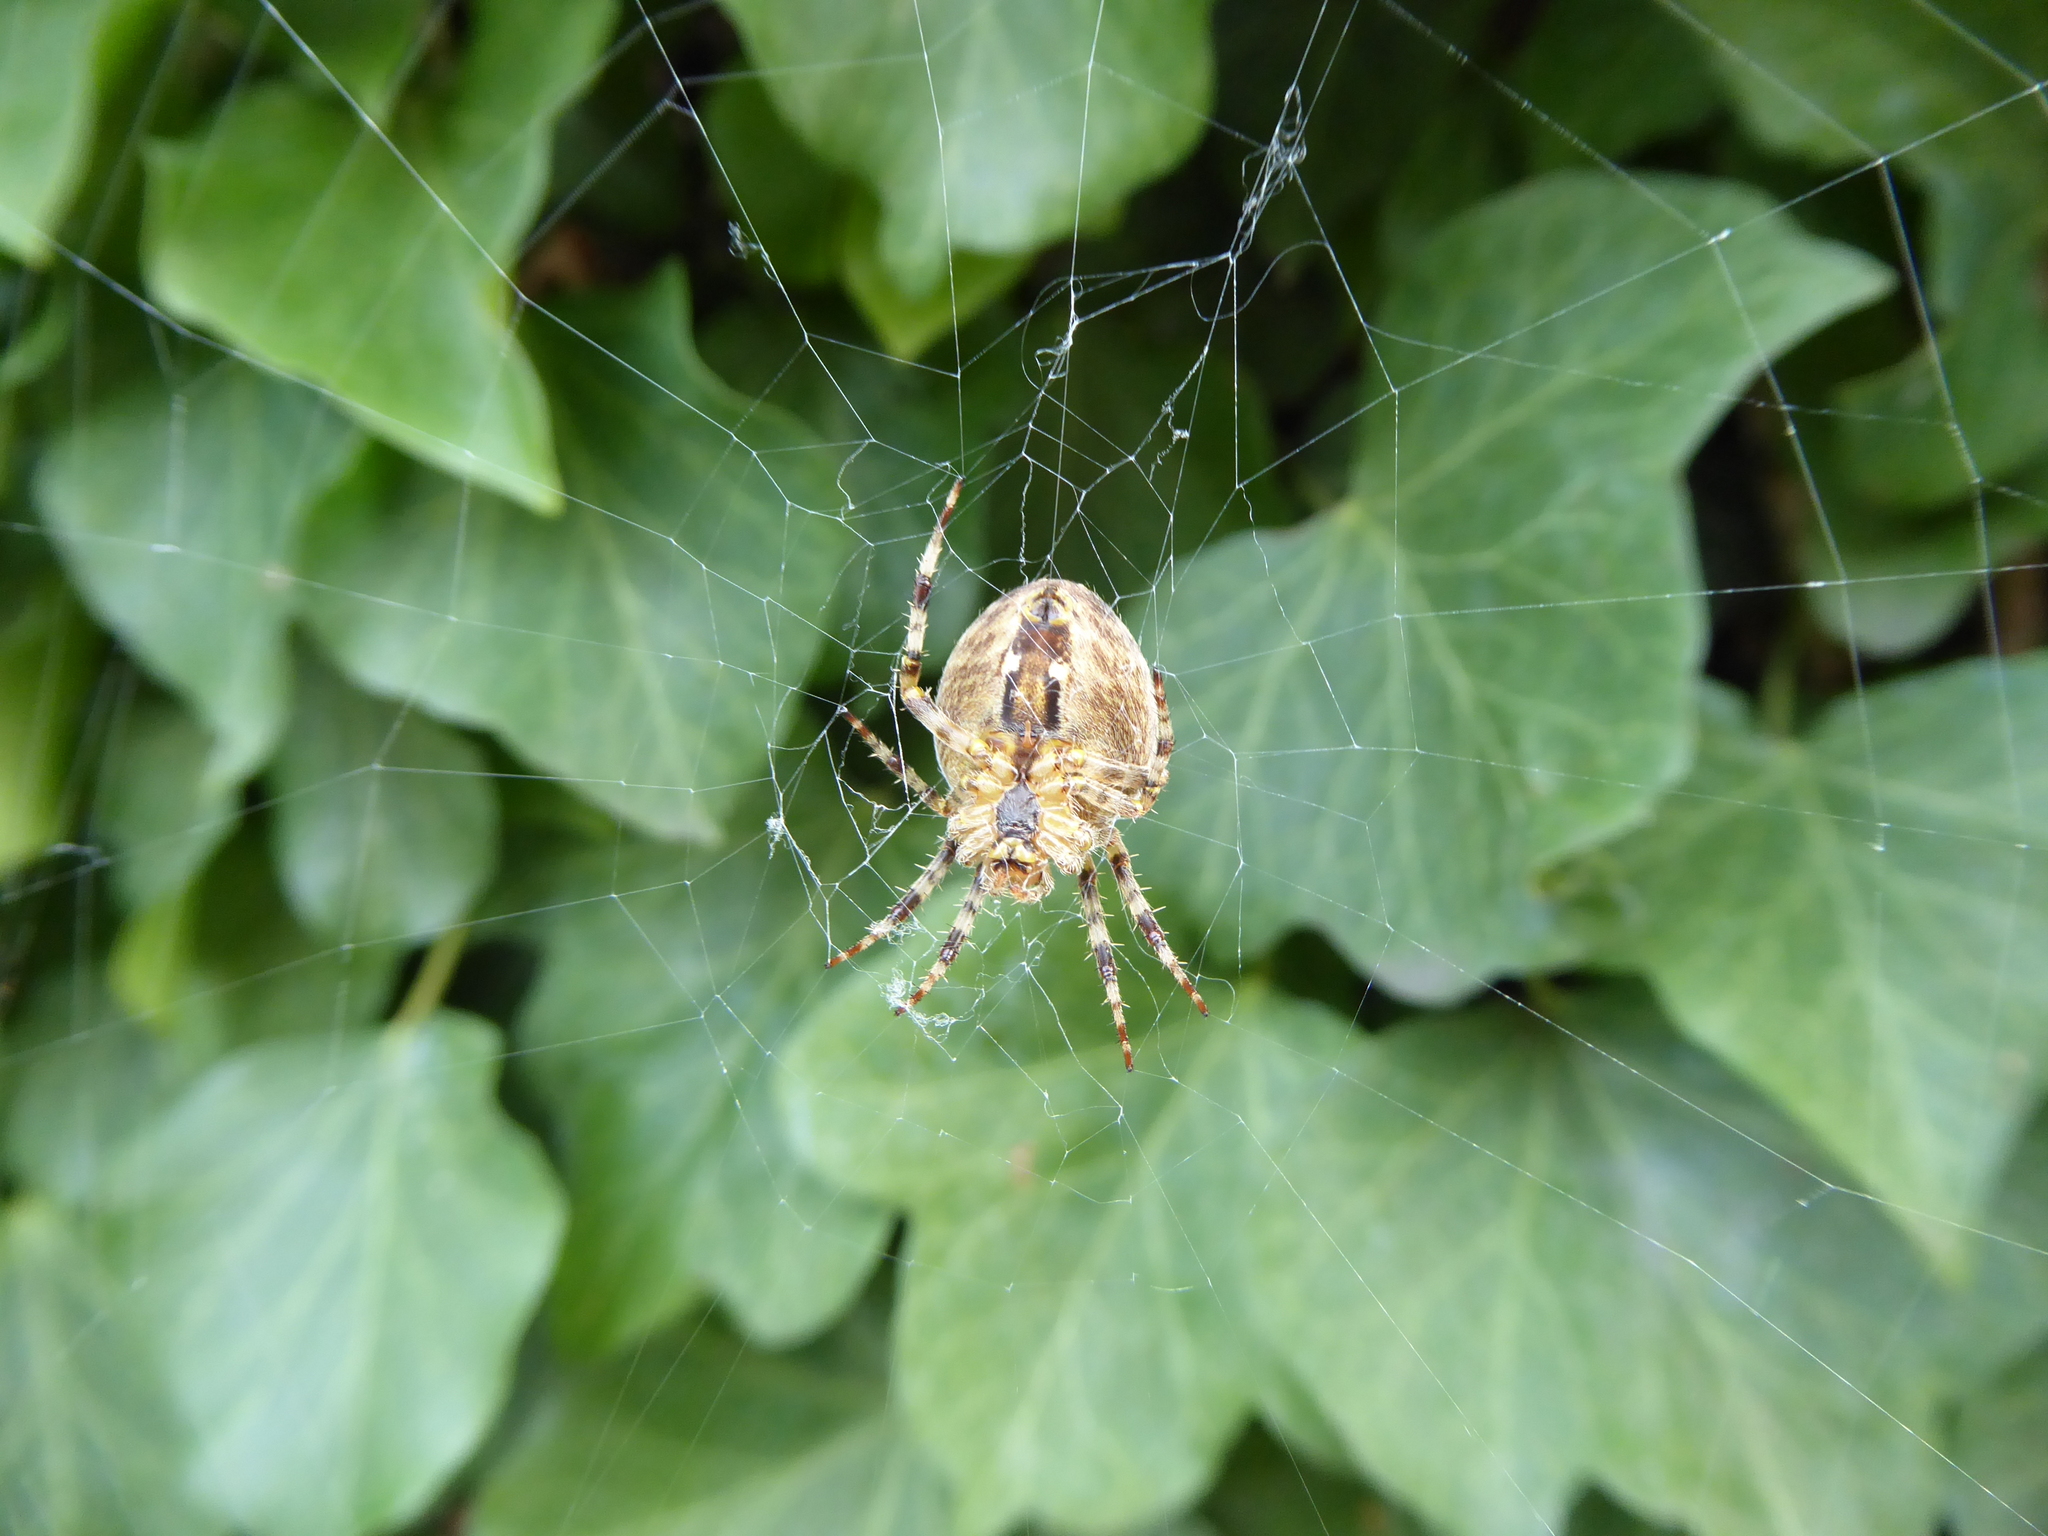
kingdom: Animalia
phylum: Arthropoda
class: Arachnida
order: Araneae
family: Araneidae
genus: Araneus
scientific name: Araneus diadematus
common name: Cross orbweaver
